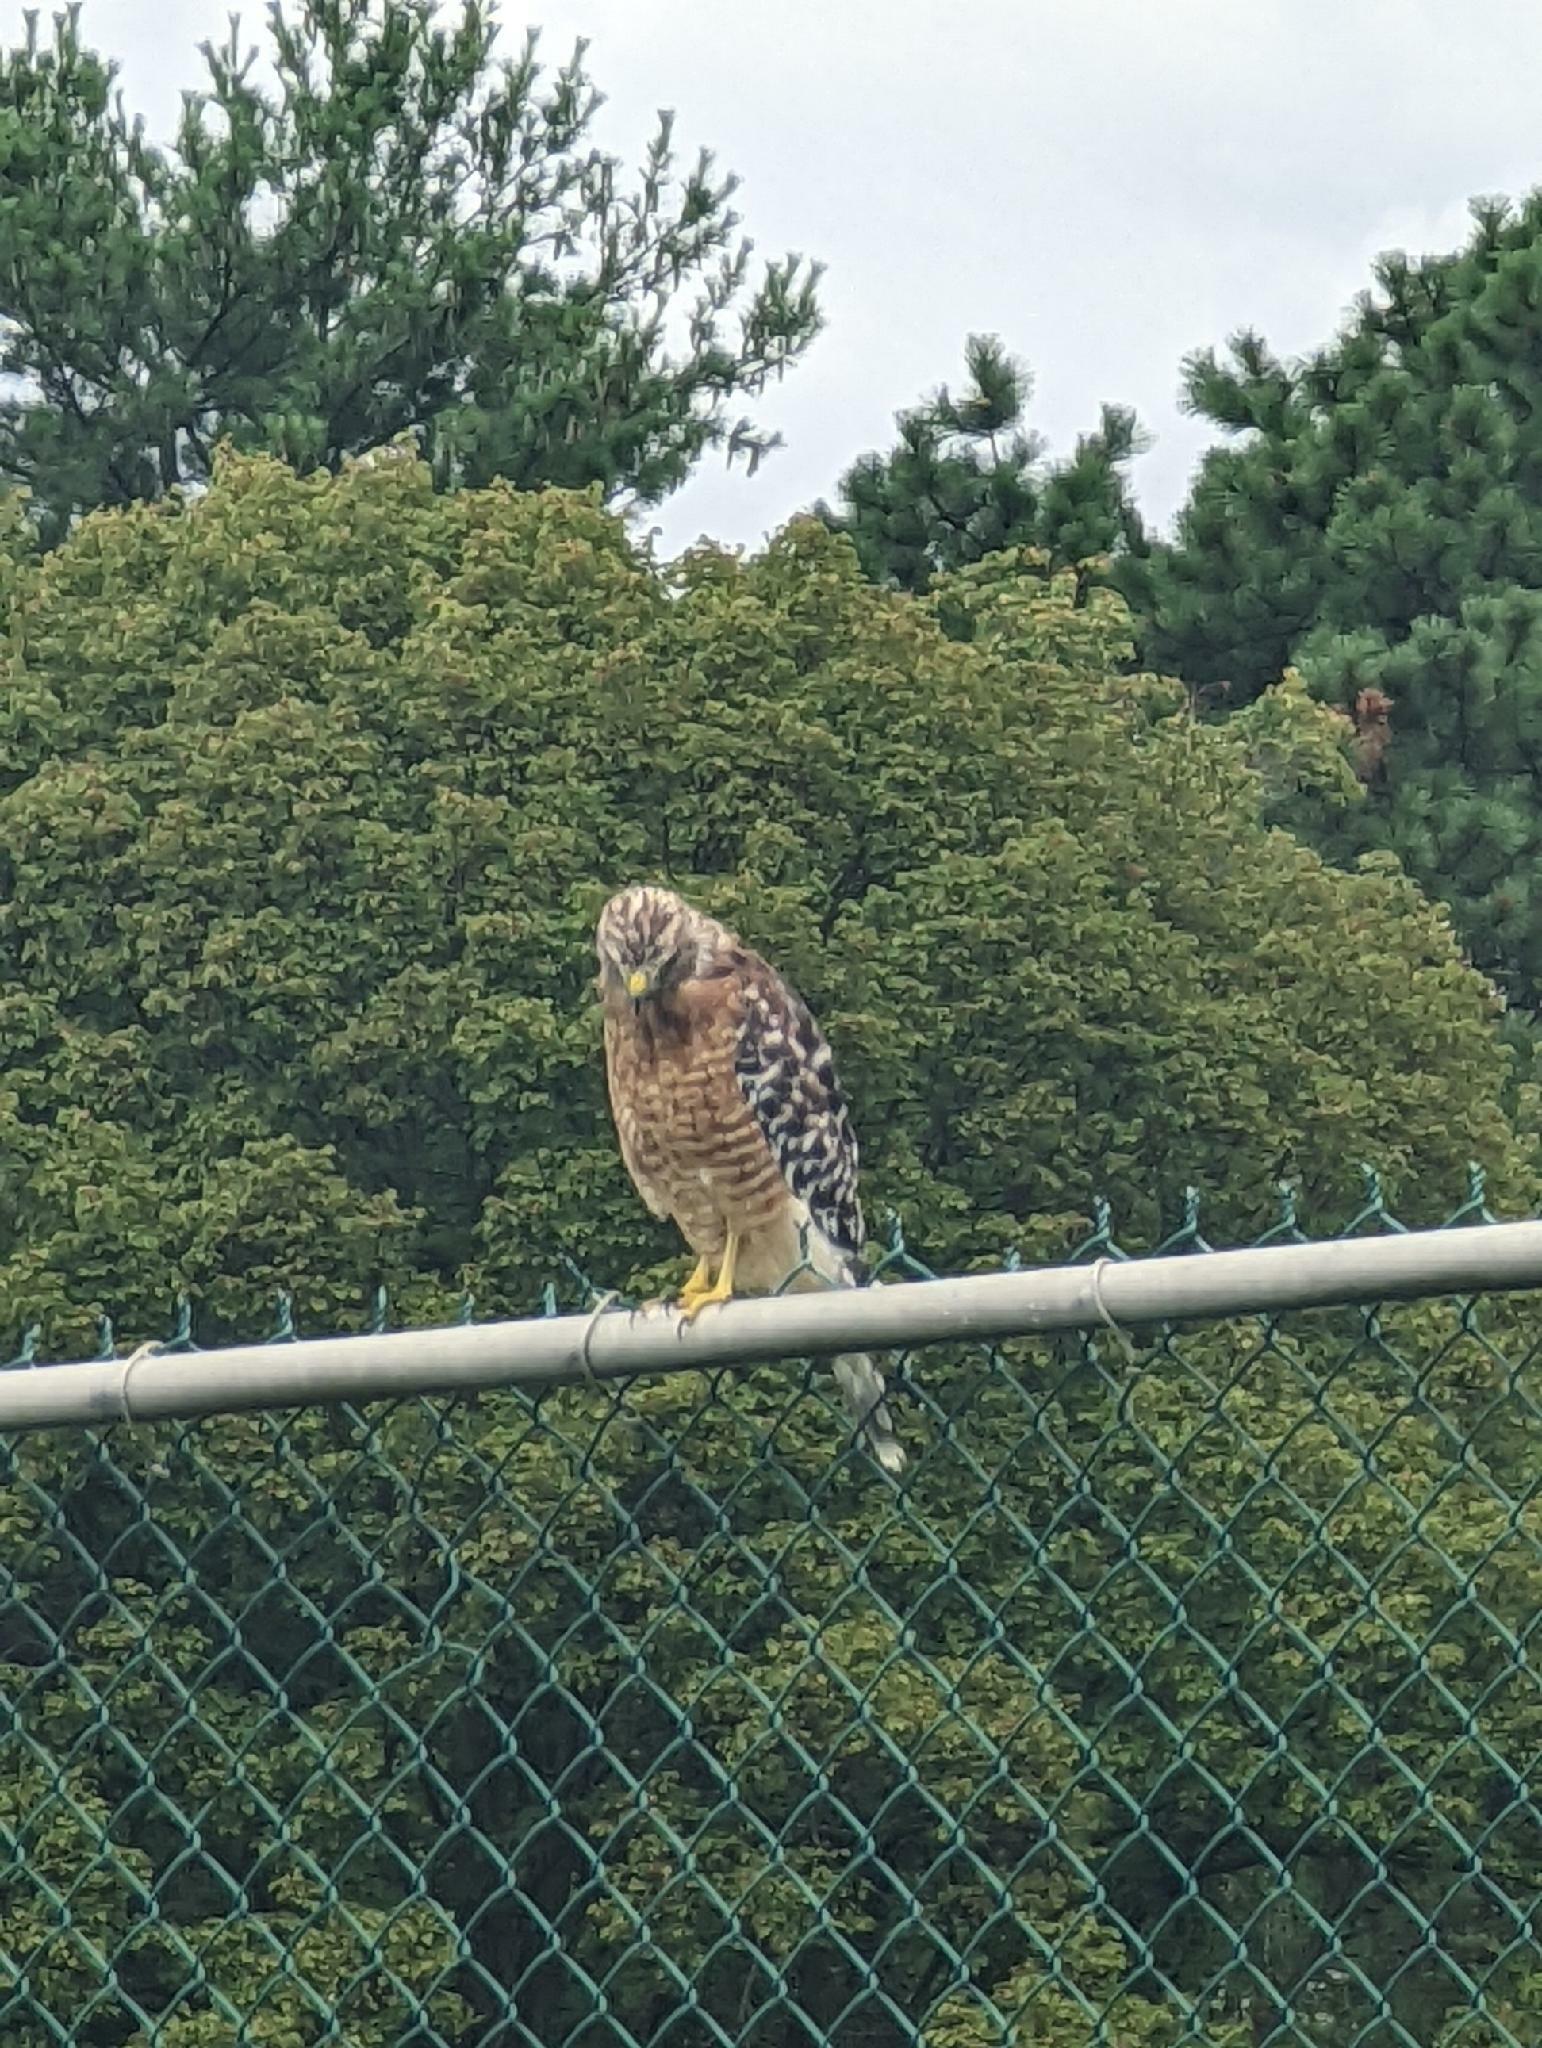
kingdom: Animalia
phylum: Chordata
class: Aves
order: Accipitriformes
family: Accipitridae
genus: Buteo
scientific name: Buteo lineatus
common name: Red-shouldered hawk
